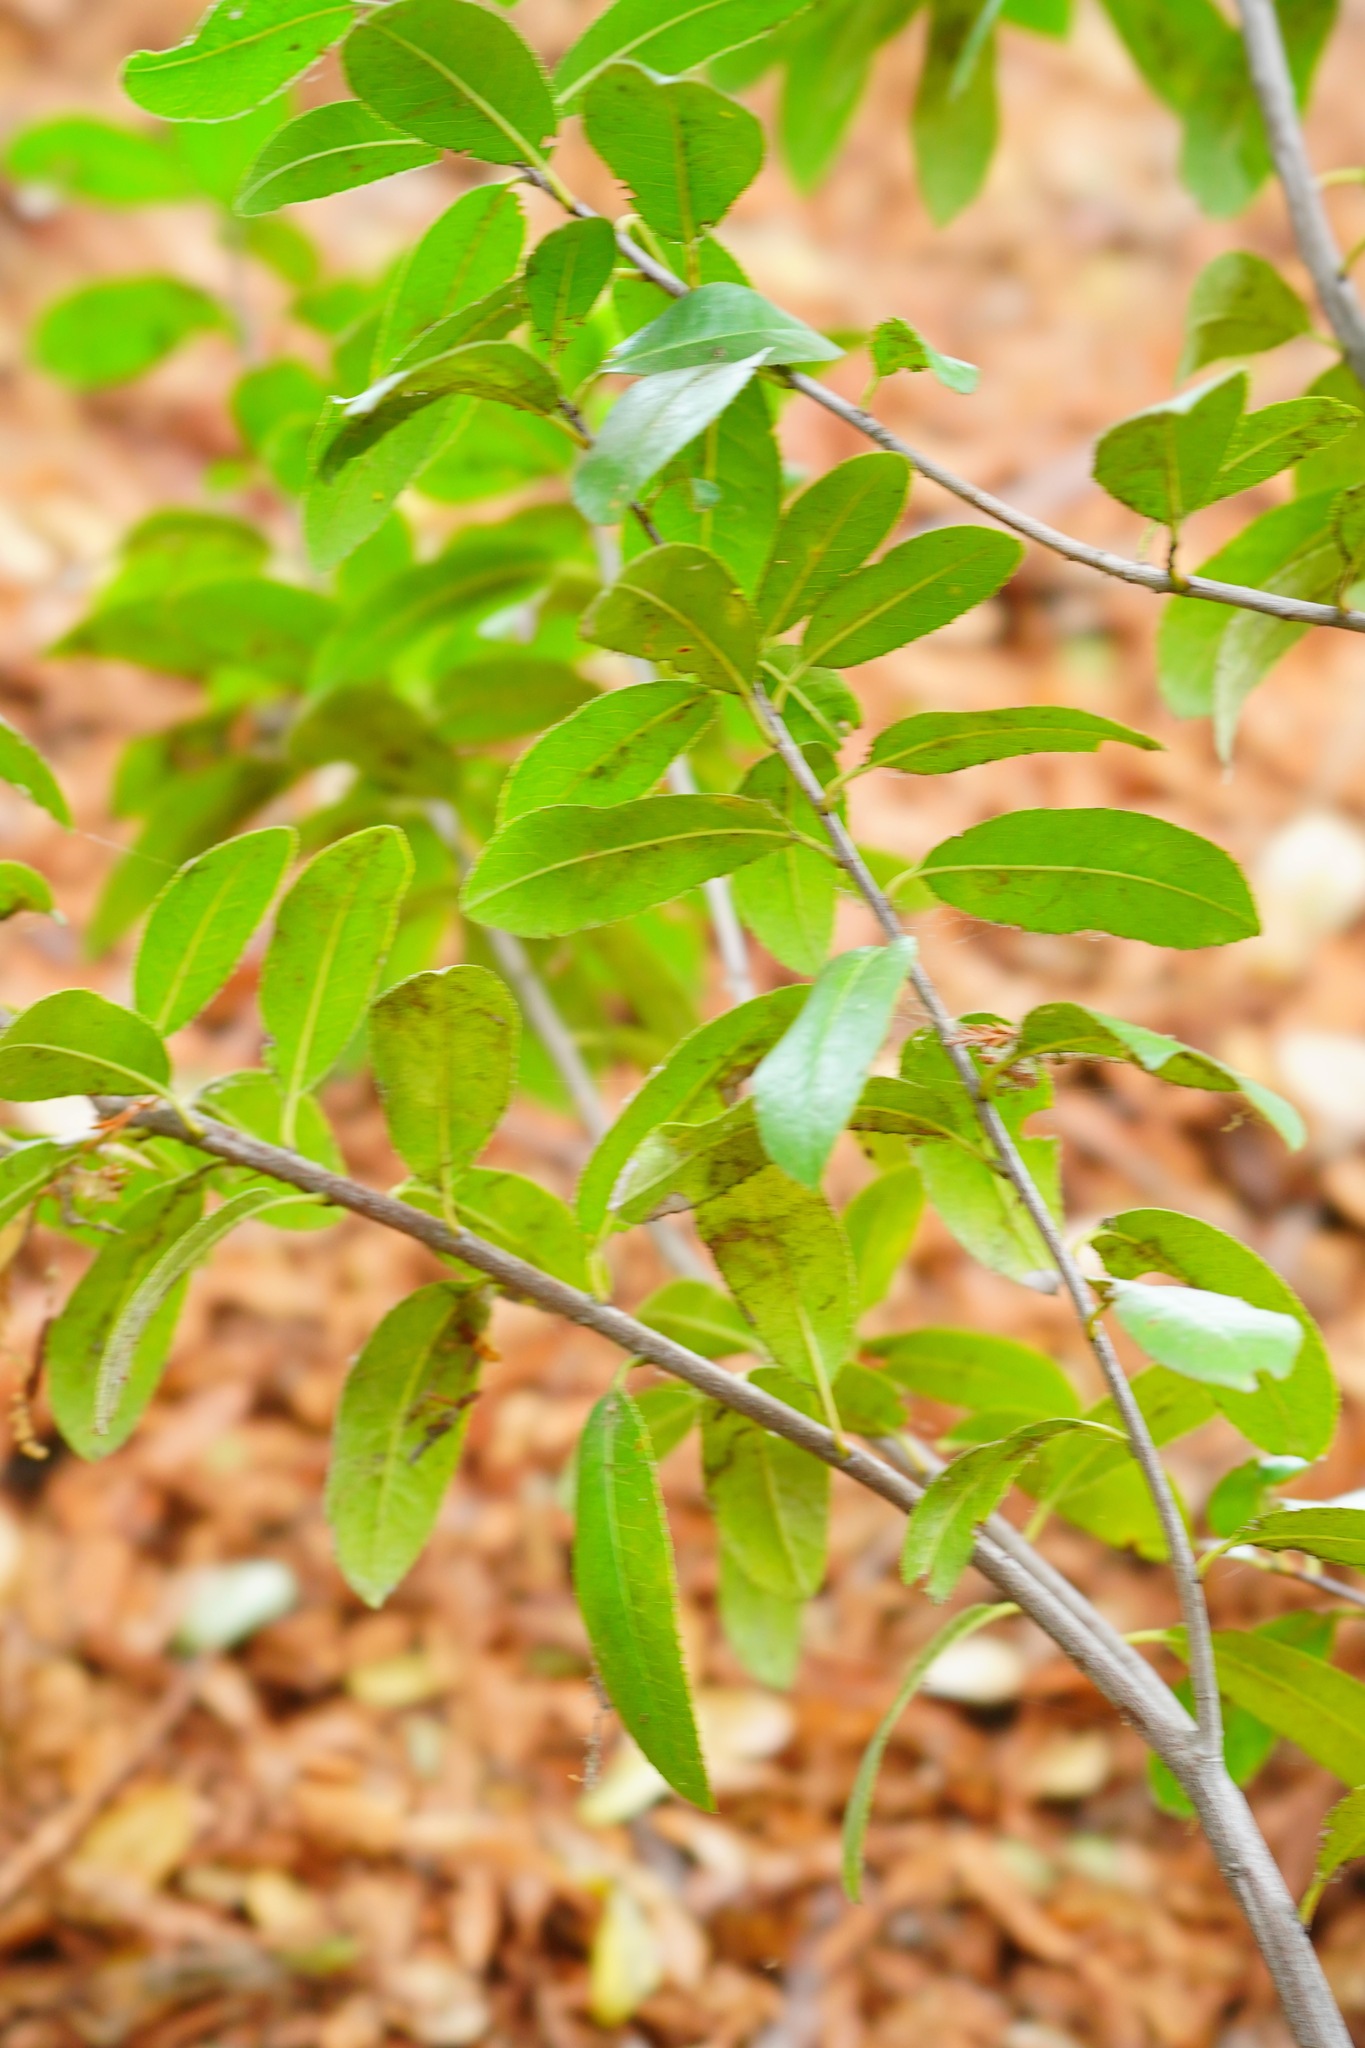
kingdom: Plantae
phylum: Tracheophyta
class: Magnoliopsida
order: Rosales
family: Rosaceae
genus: Heteromeles
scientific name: Heteromeles arbutifolia
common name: California-holly
